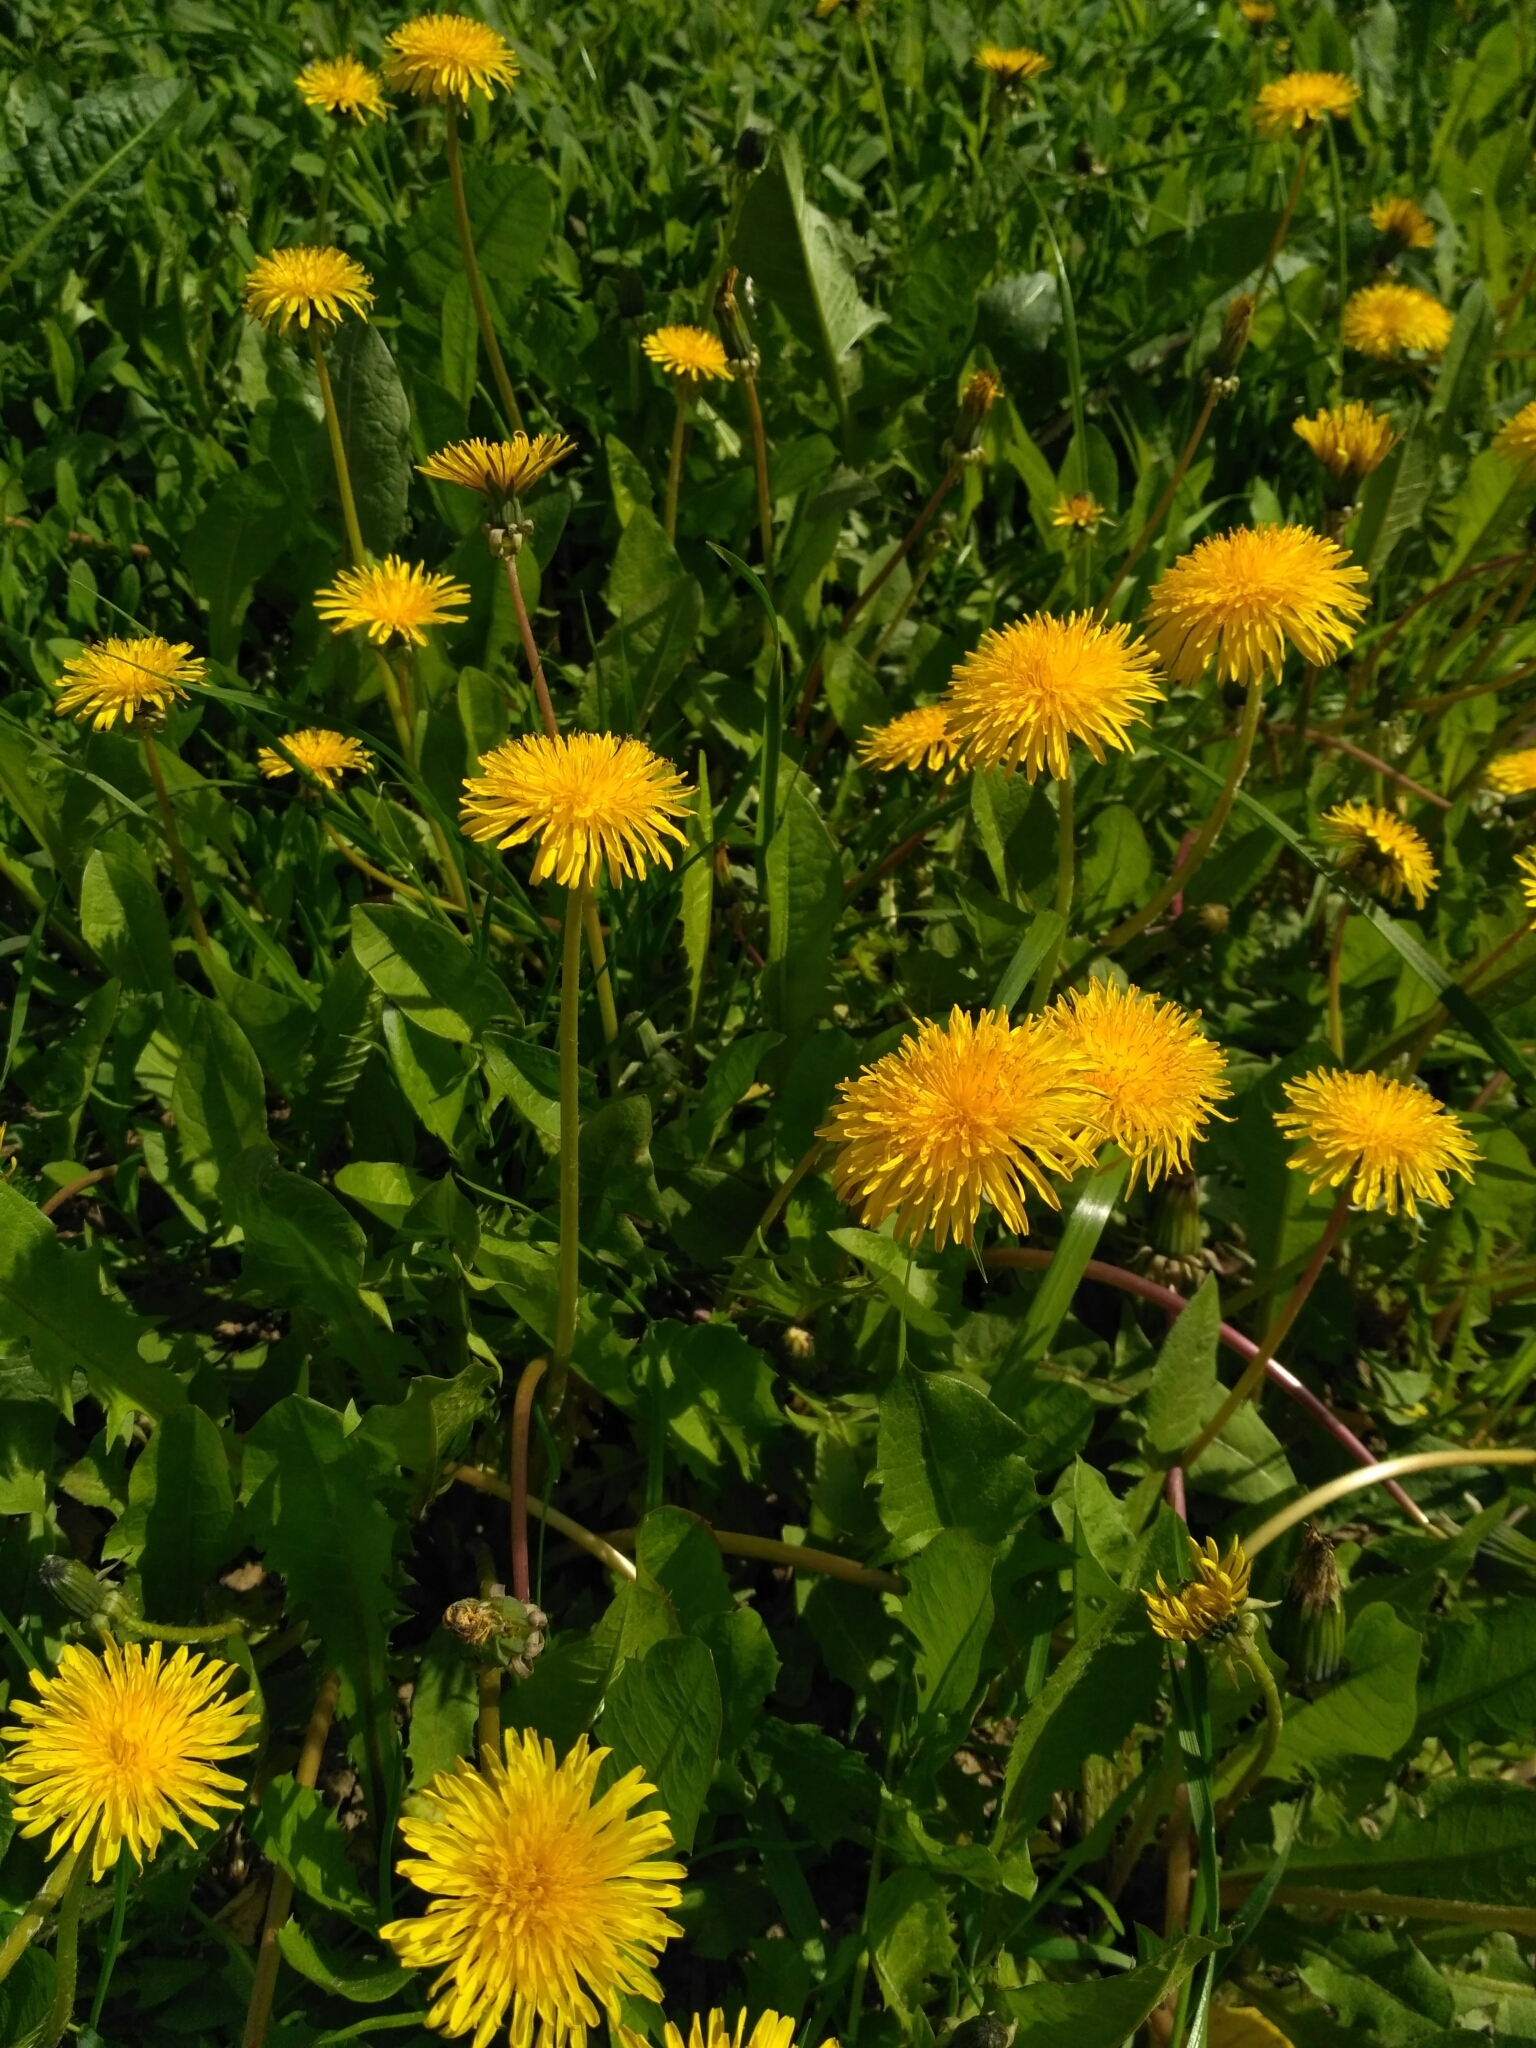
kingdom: Plantae
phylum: Tracheophyta
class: Magnoliopsida
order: Asterales
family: Asteraceae
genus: Taraxacum
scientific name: Taraxacum officinale
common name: Common dandelion
